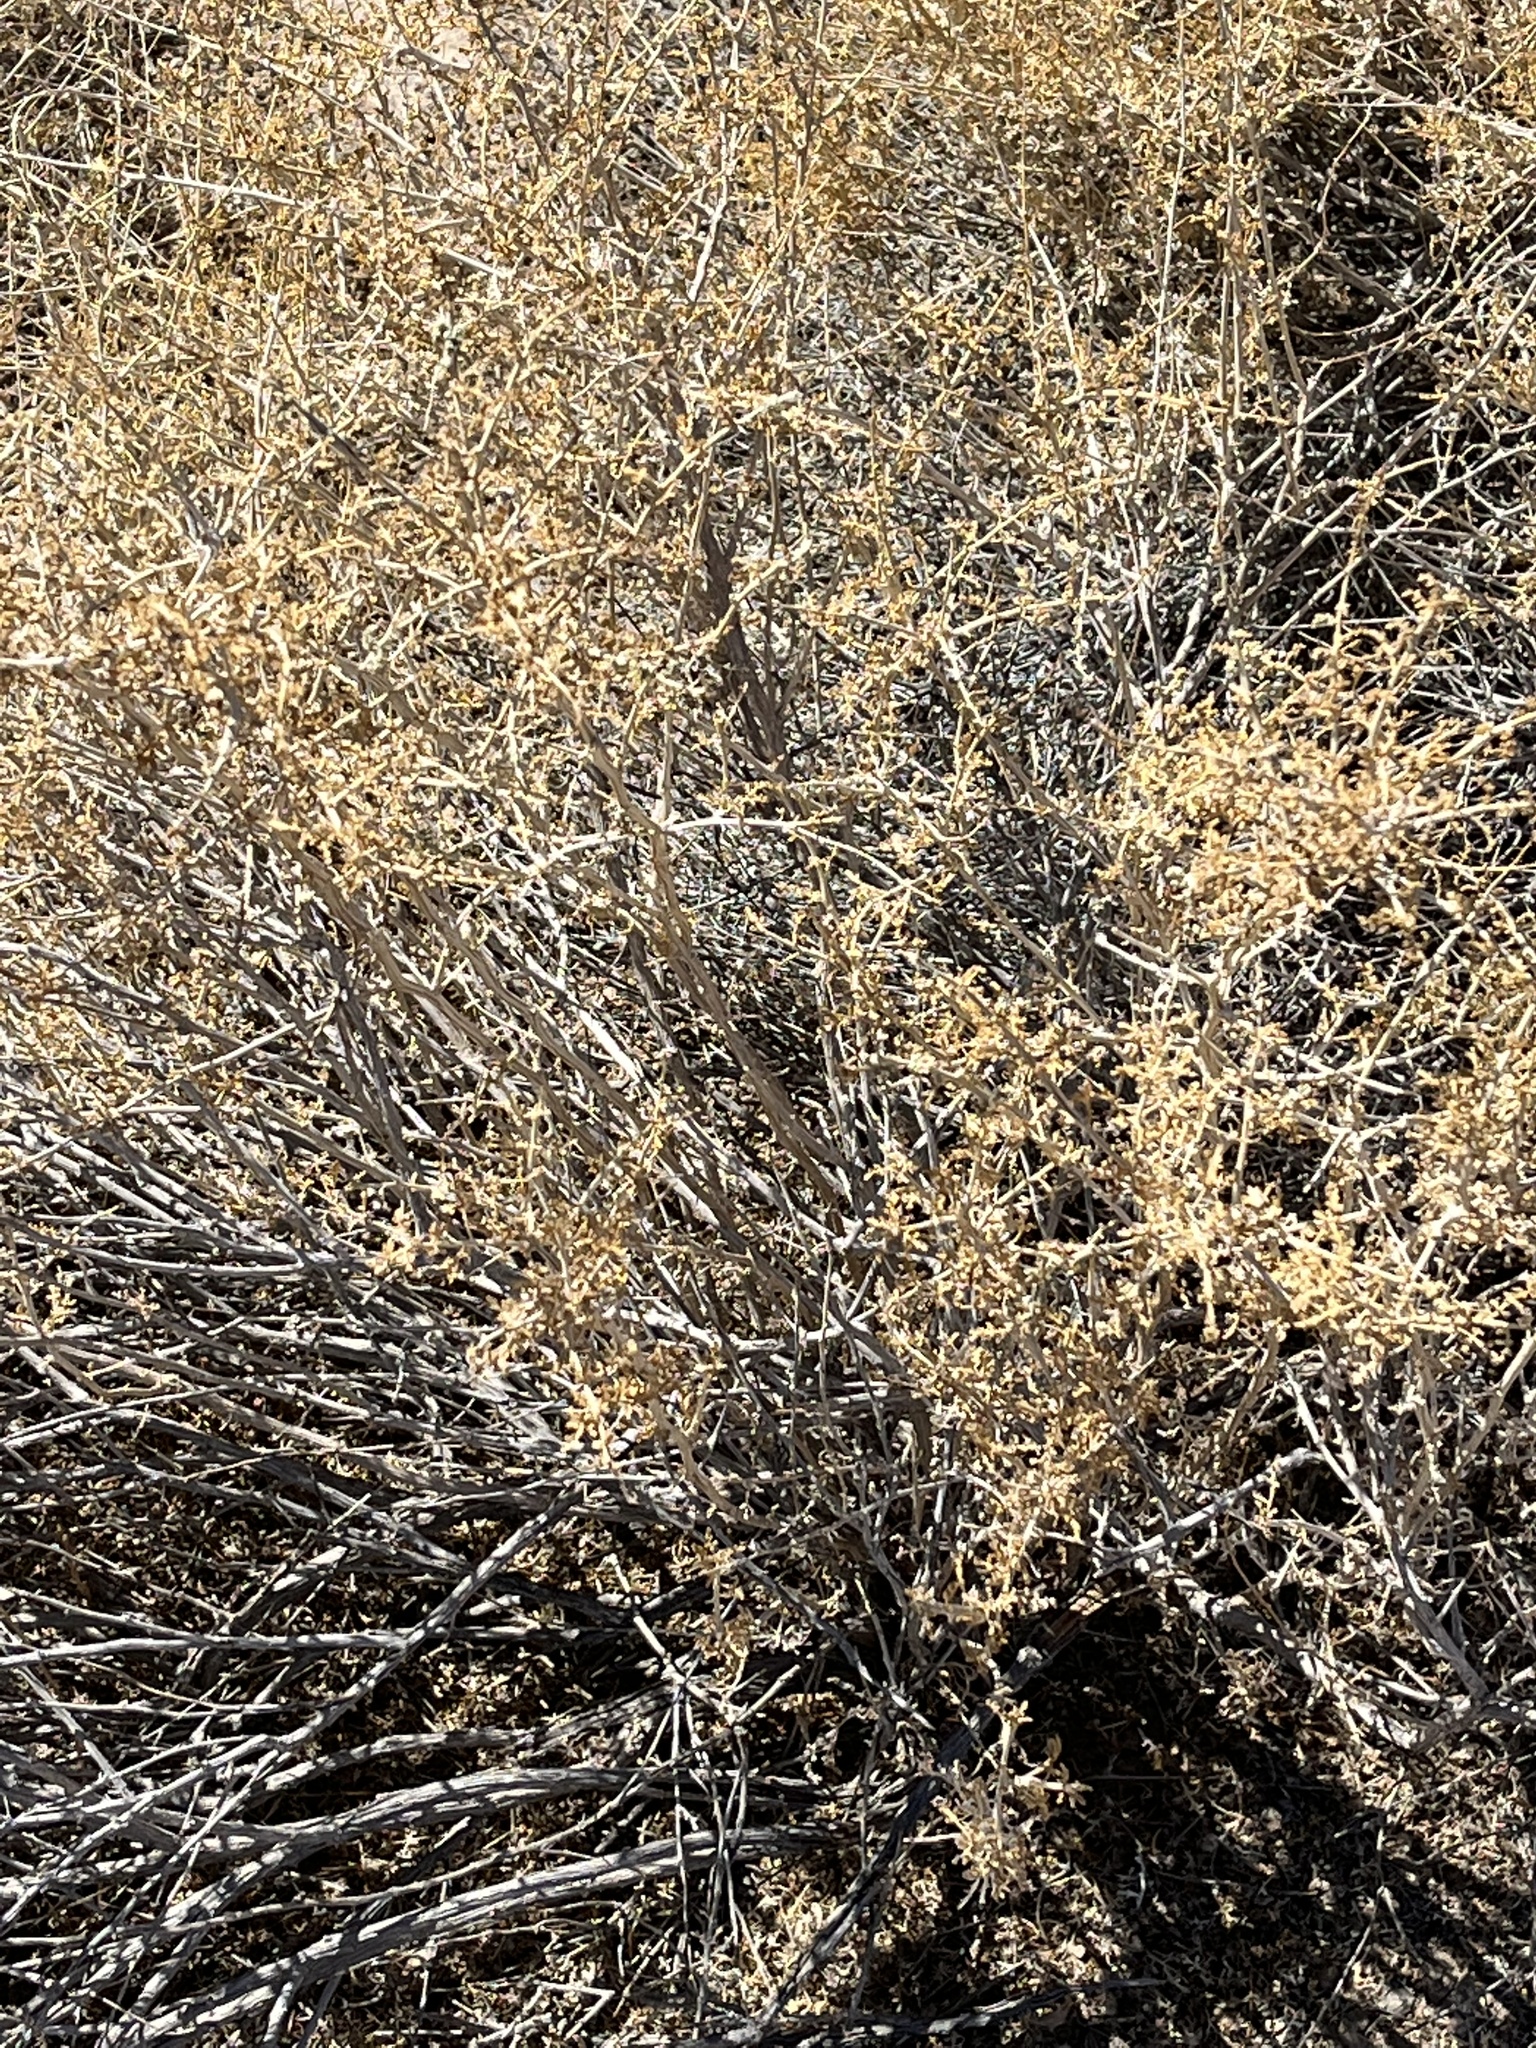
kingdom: Plantae
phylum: Tracheophyta
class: Magnoliopsida
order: Asterales
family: Asteraceae
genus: Ambrosia
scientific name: Ambrosia dumosa
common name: Bur-sage
